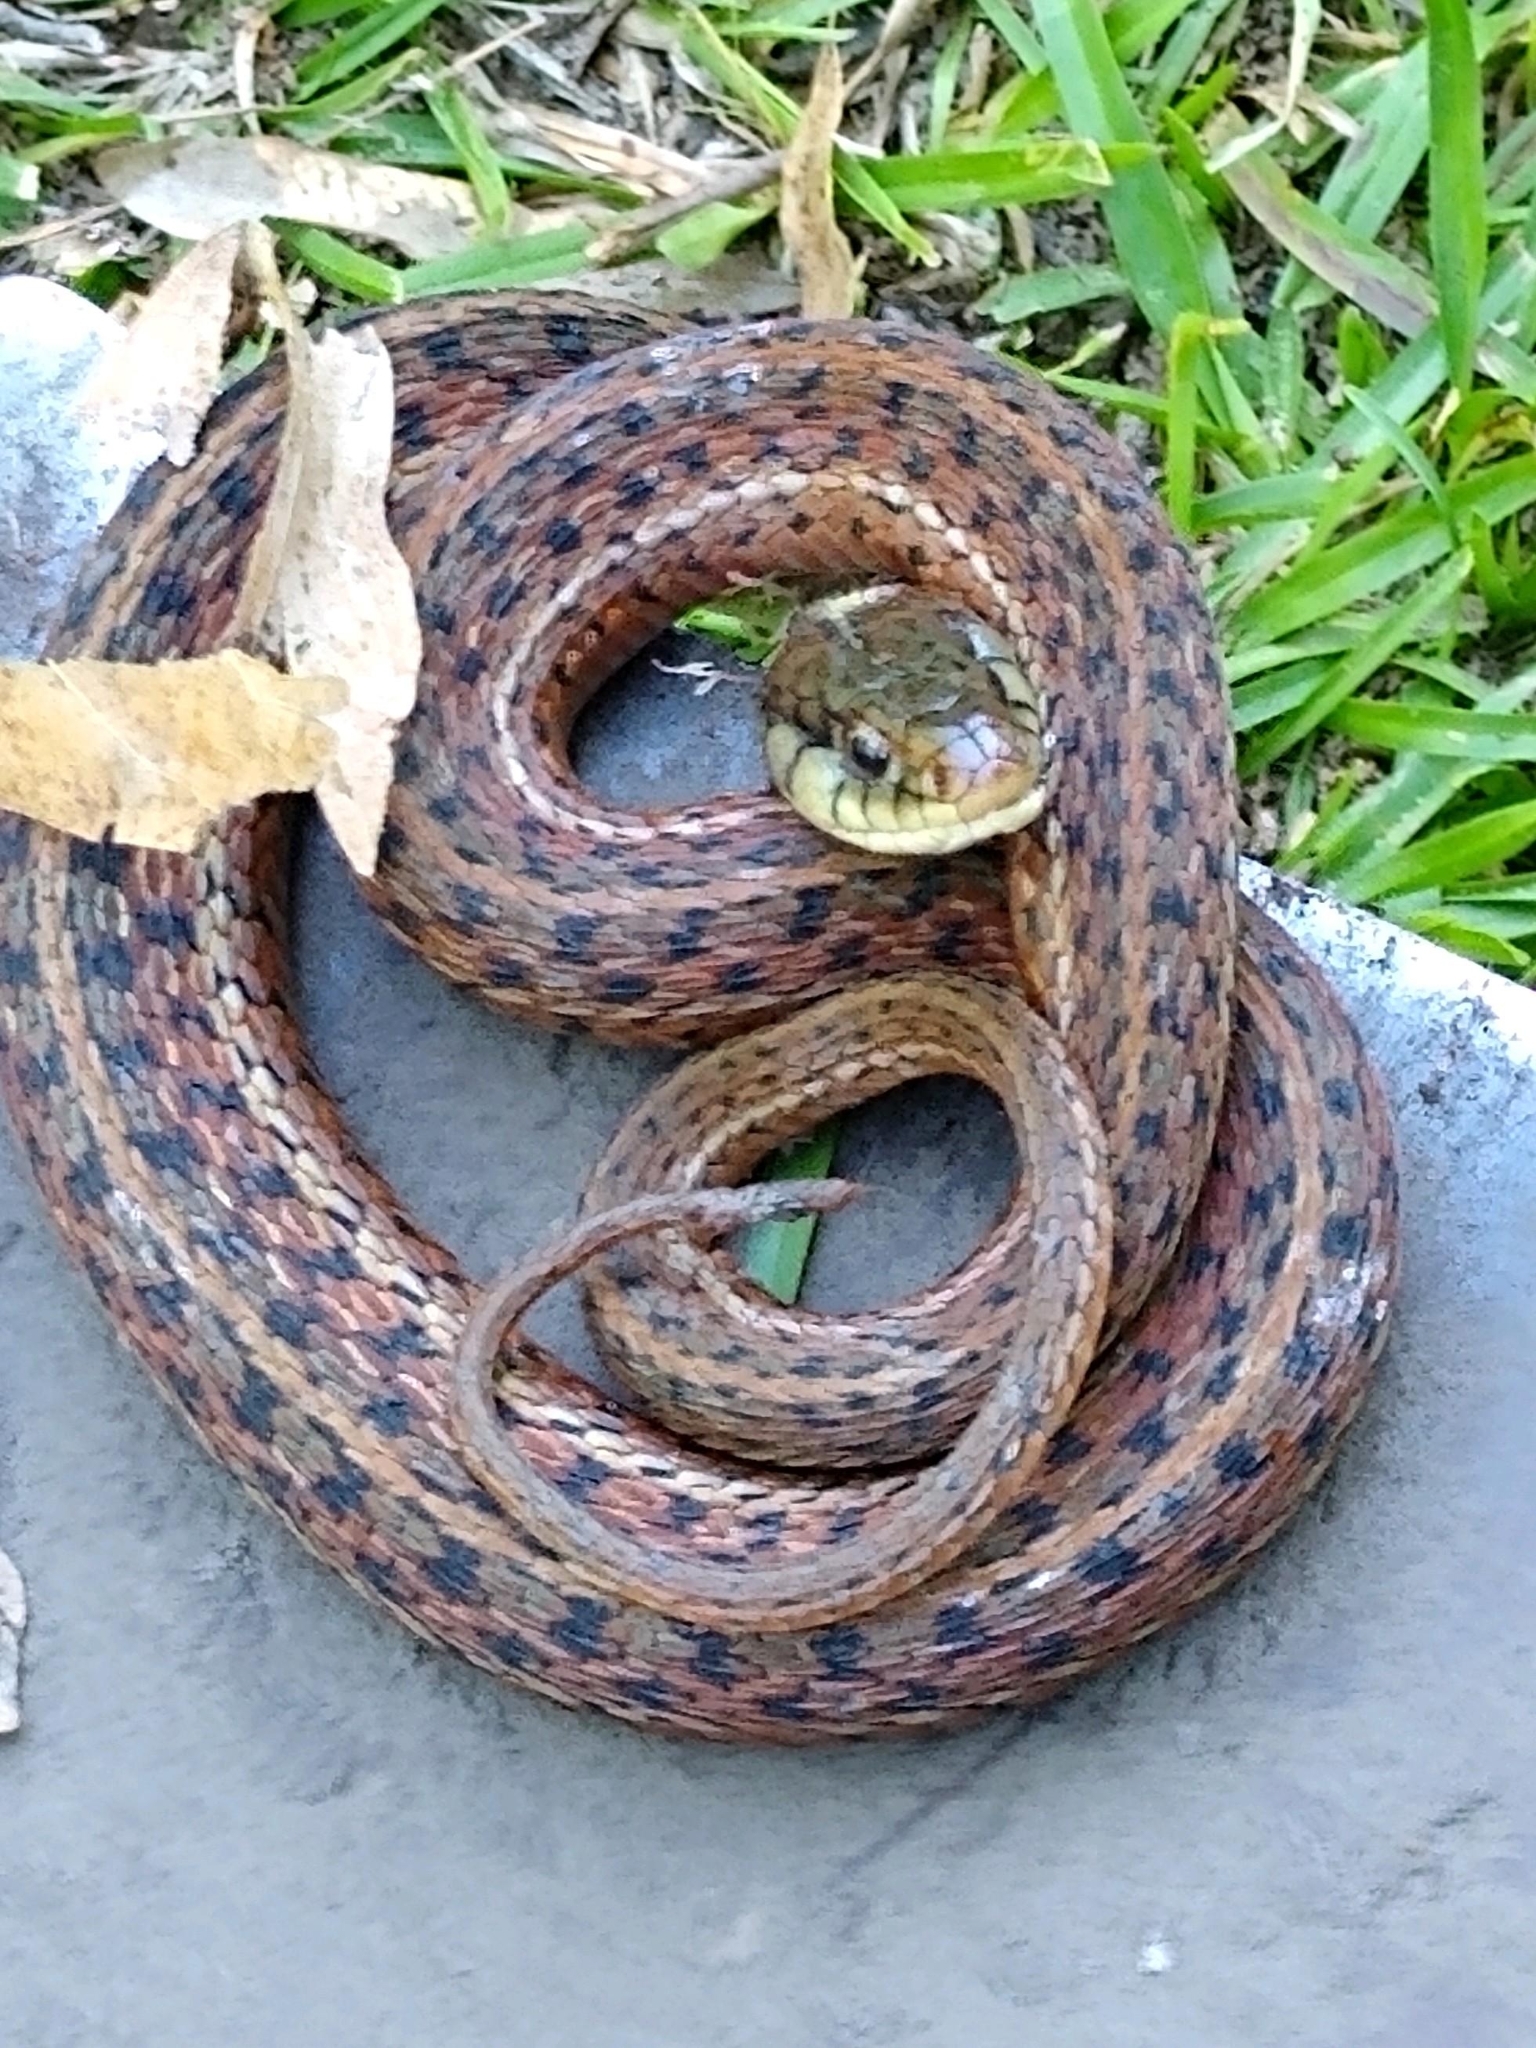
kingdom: Animalia
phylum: Chordata
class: Squamata
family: Colubridae
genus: Thamnophis
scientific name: Thamnophis sirtalis
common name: Common garter snake
